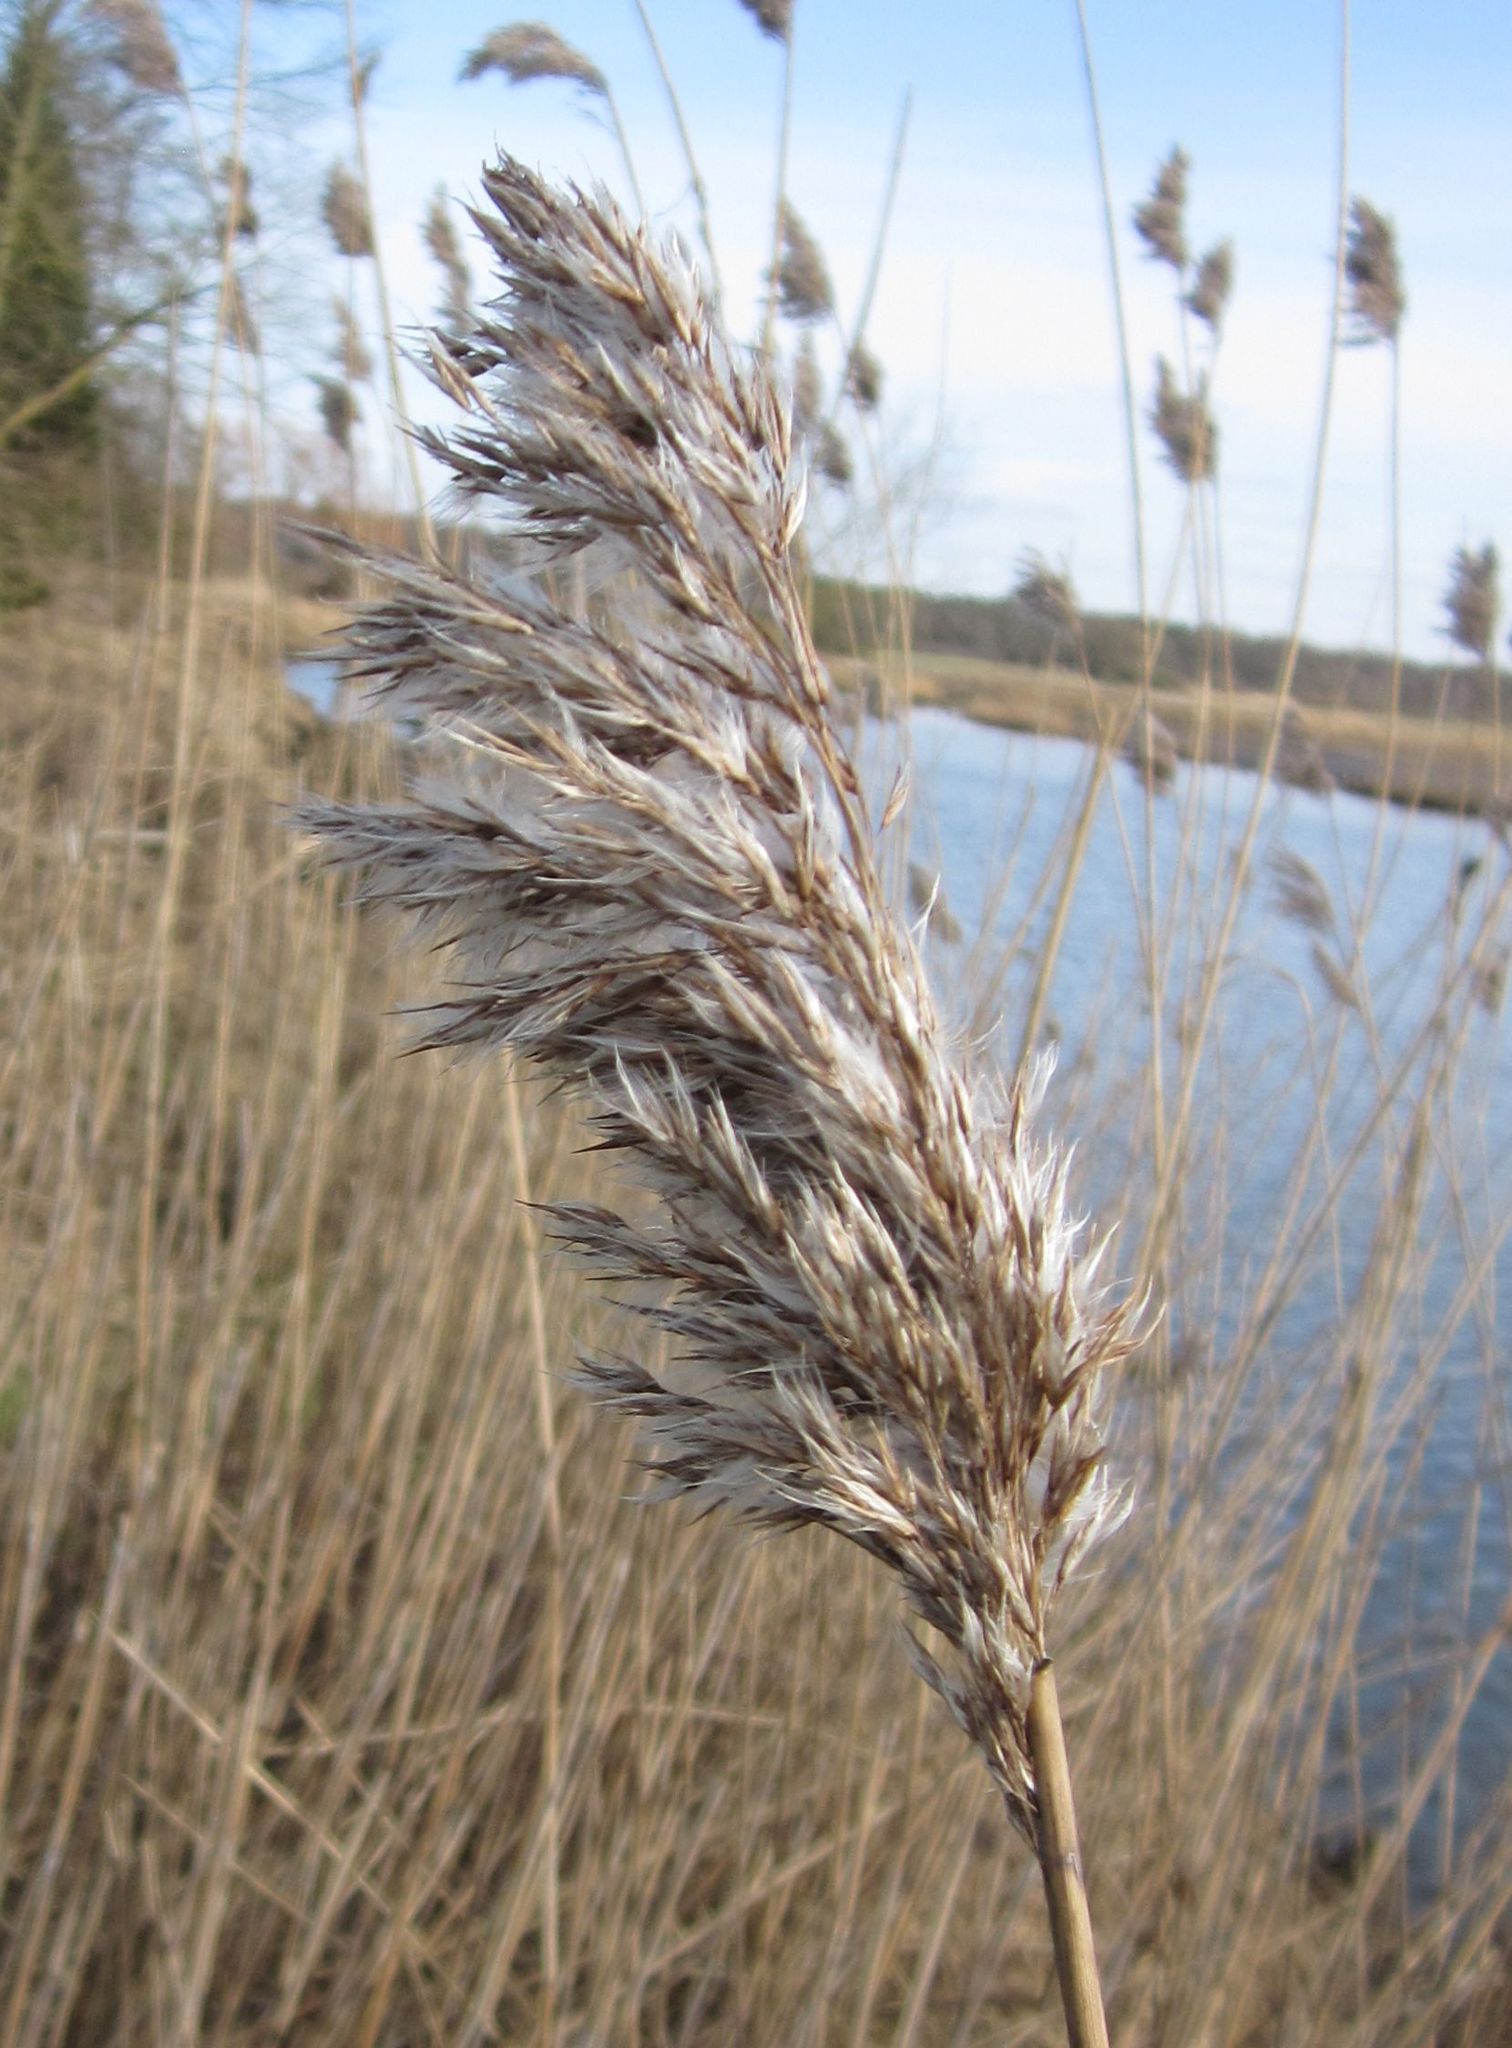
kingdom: Plantae
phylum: Tracheophyta
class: Liliopsida
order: Poales
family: Poaceae
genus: Phragmites
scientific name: Phragmites australis
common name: Common reed
